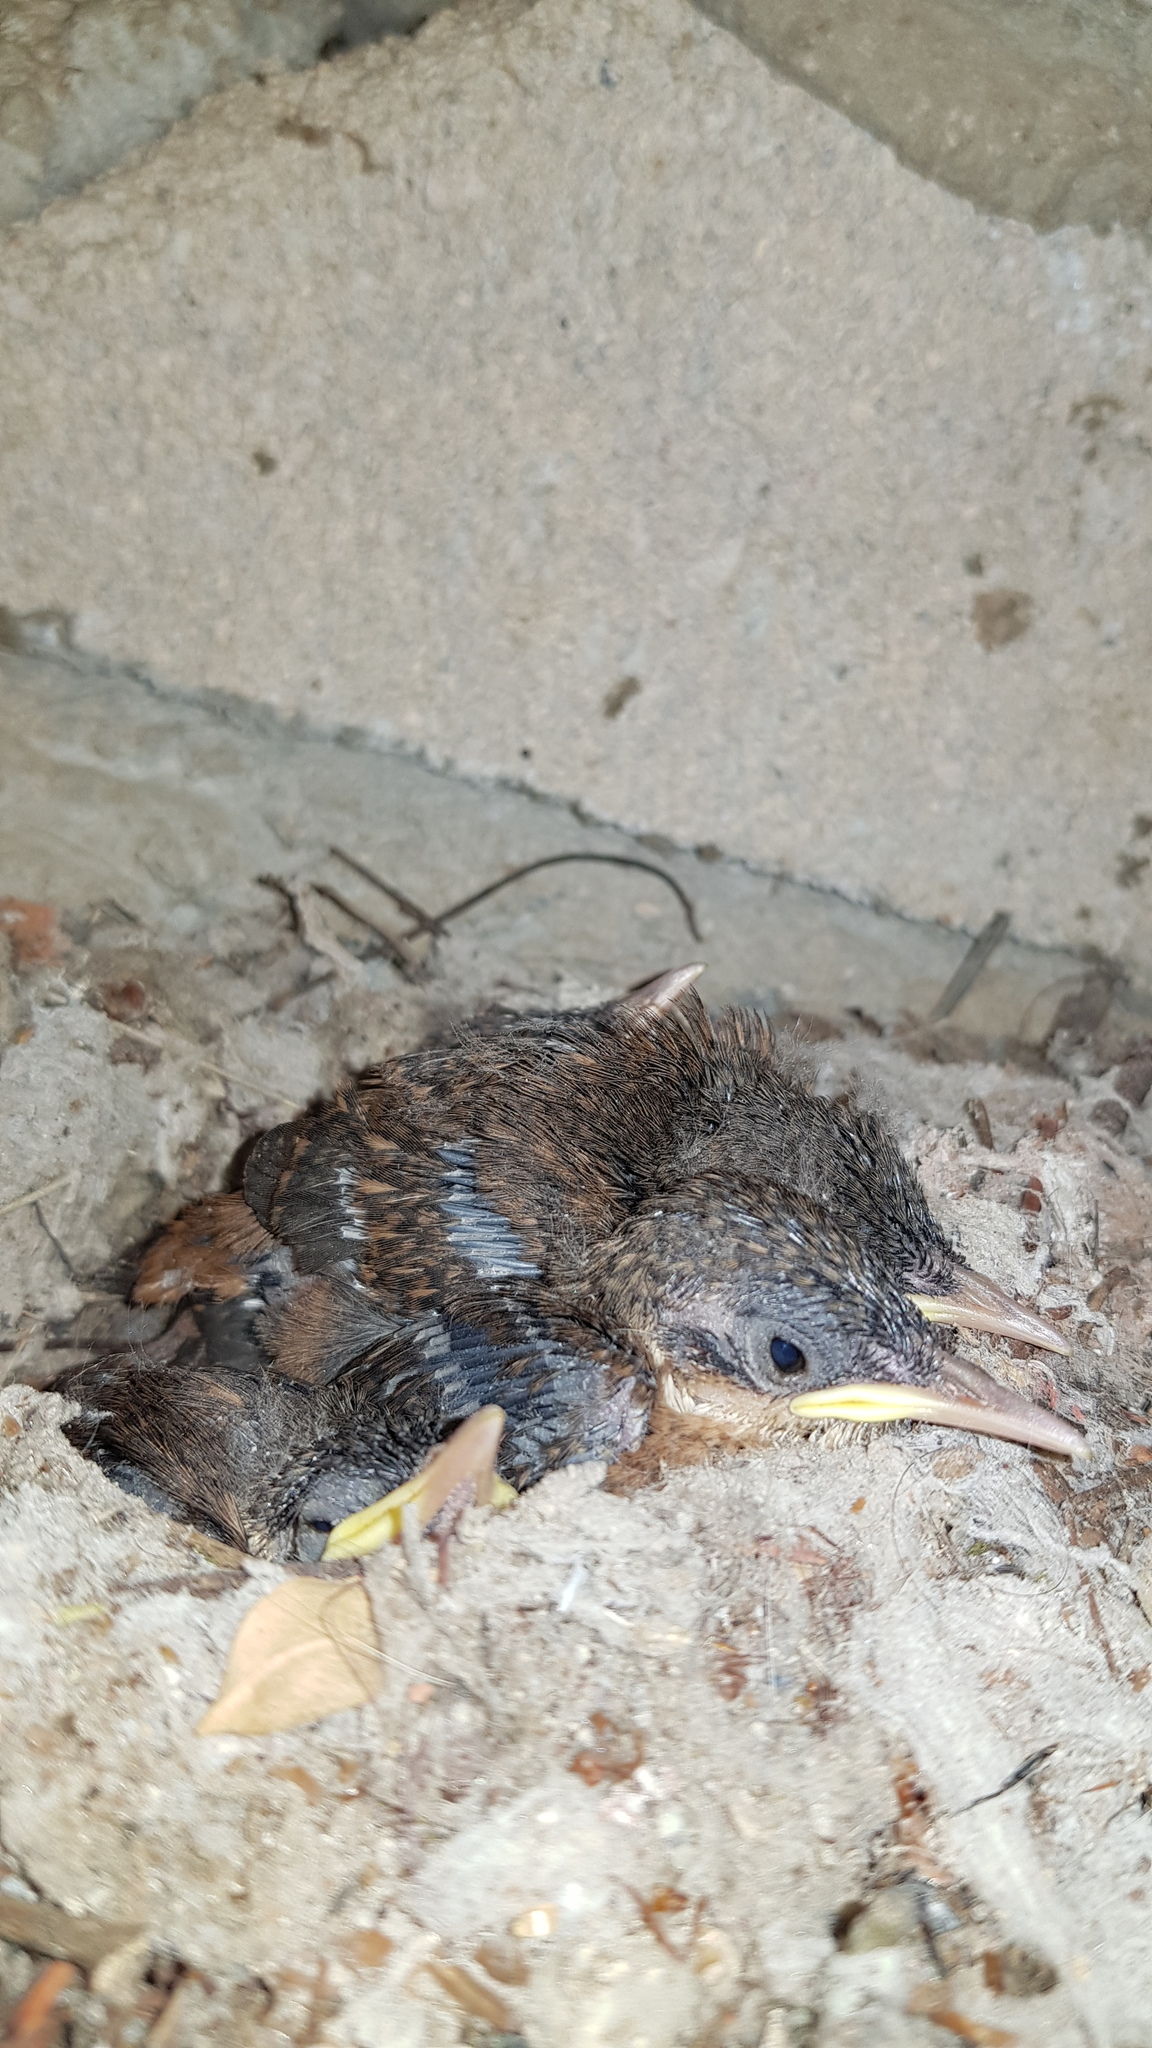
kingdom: Animalia
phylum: Chordata
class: Aves
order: Passeriformes
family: Troglodytidae
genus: Catherpes
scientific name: Catherpes mexicanus
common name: Canyon wren
